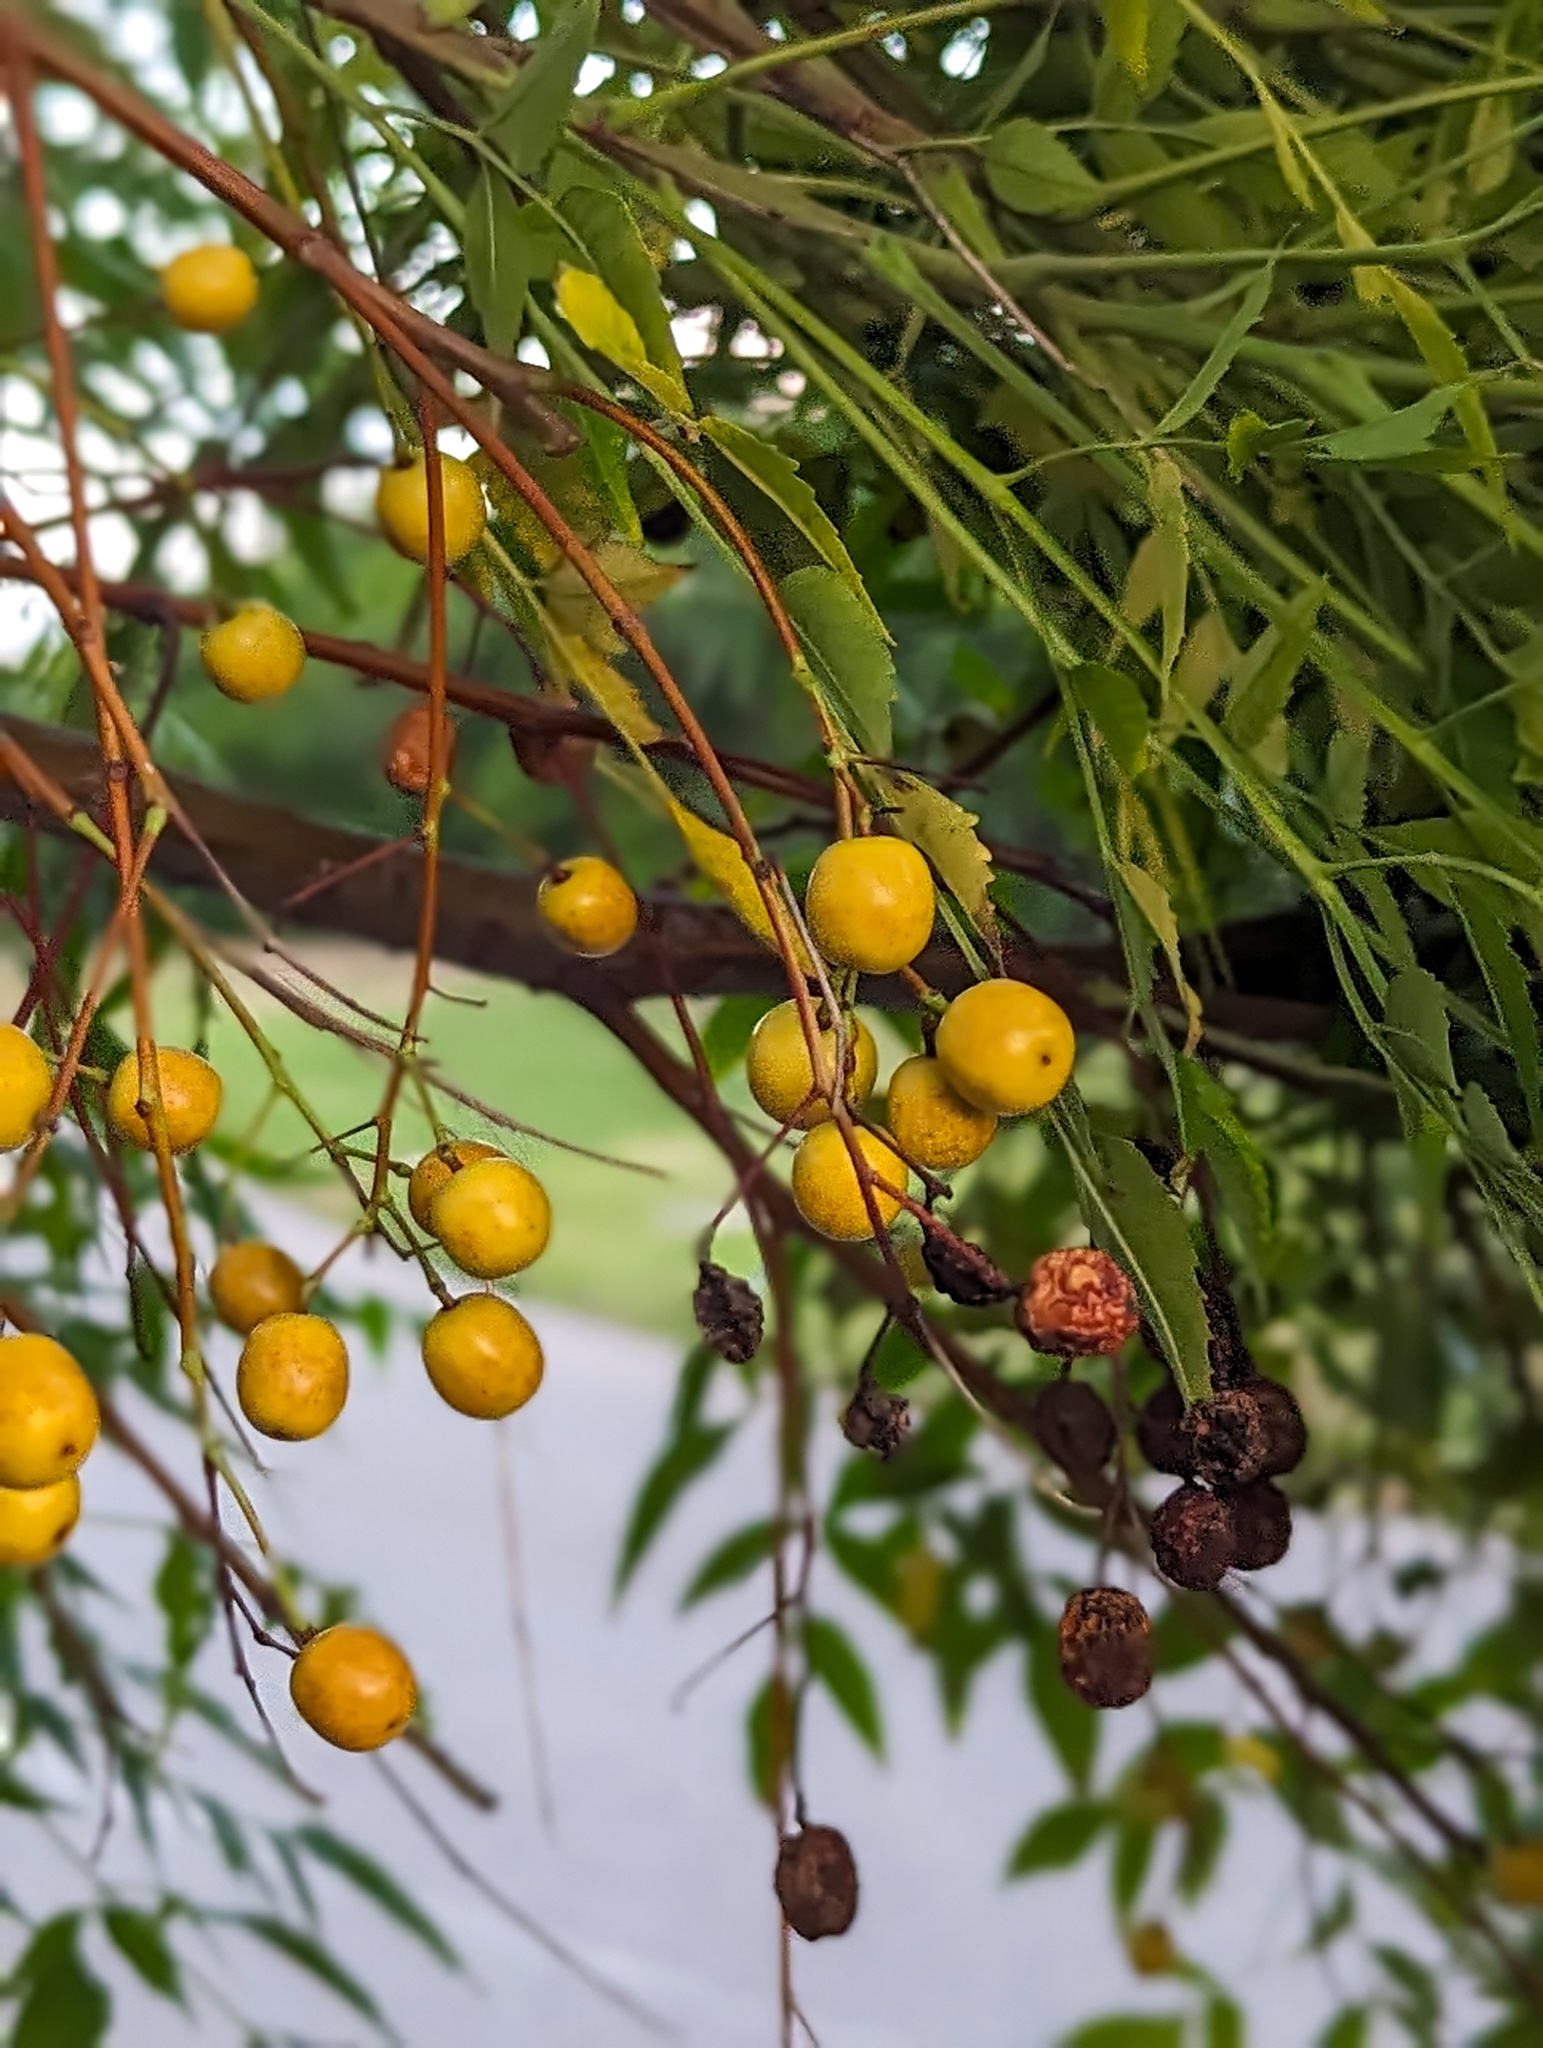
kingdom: Plantae
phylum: Tracheophyta
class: Magnoliopsida
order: Sapindales
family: Meliaceae
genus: Melia
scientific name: Melia azedarach
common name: Chinaberrytree
